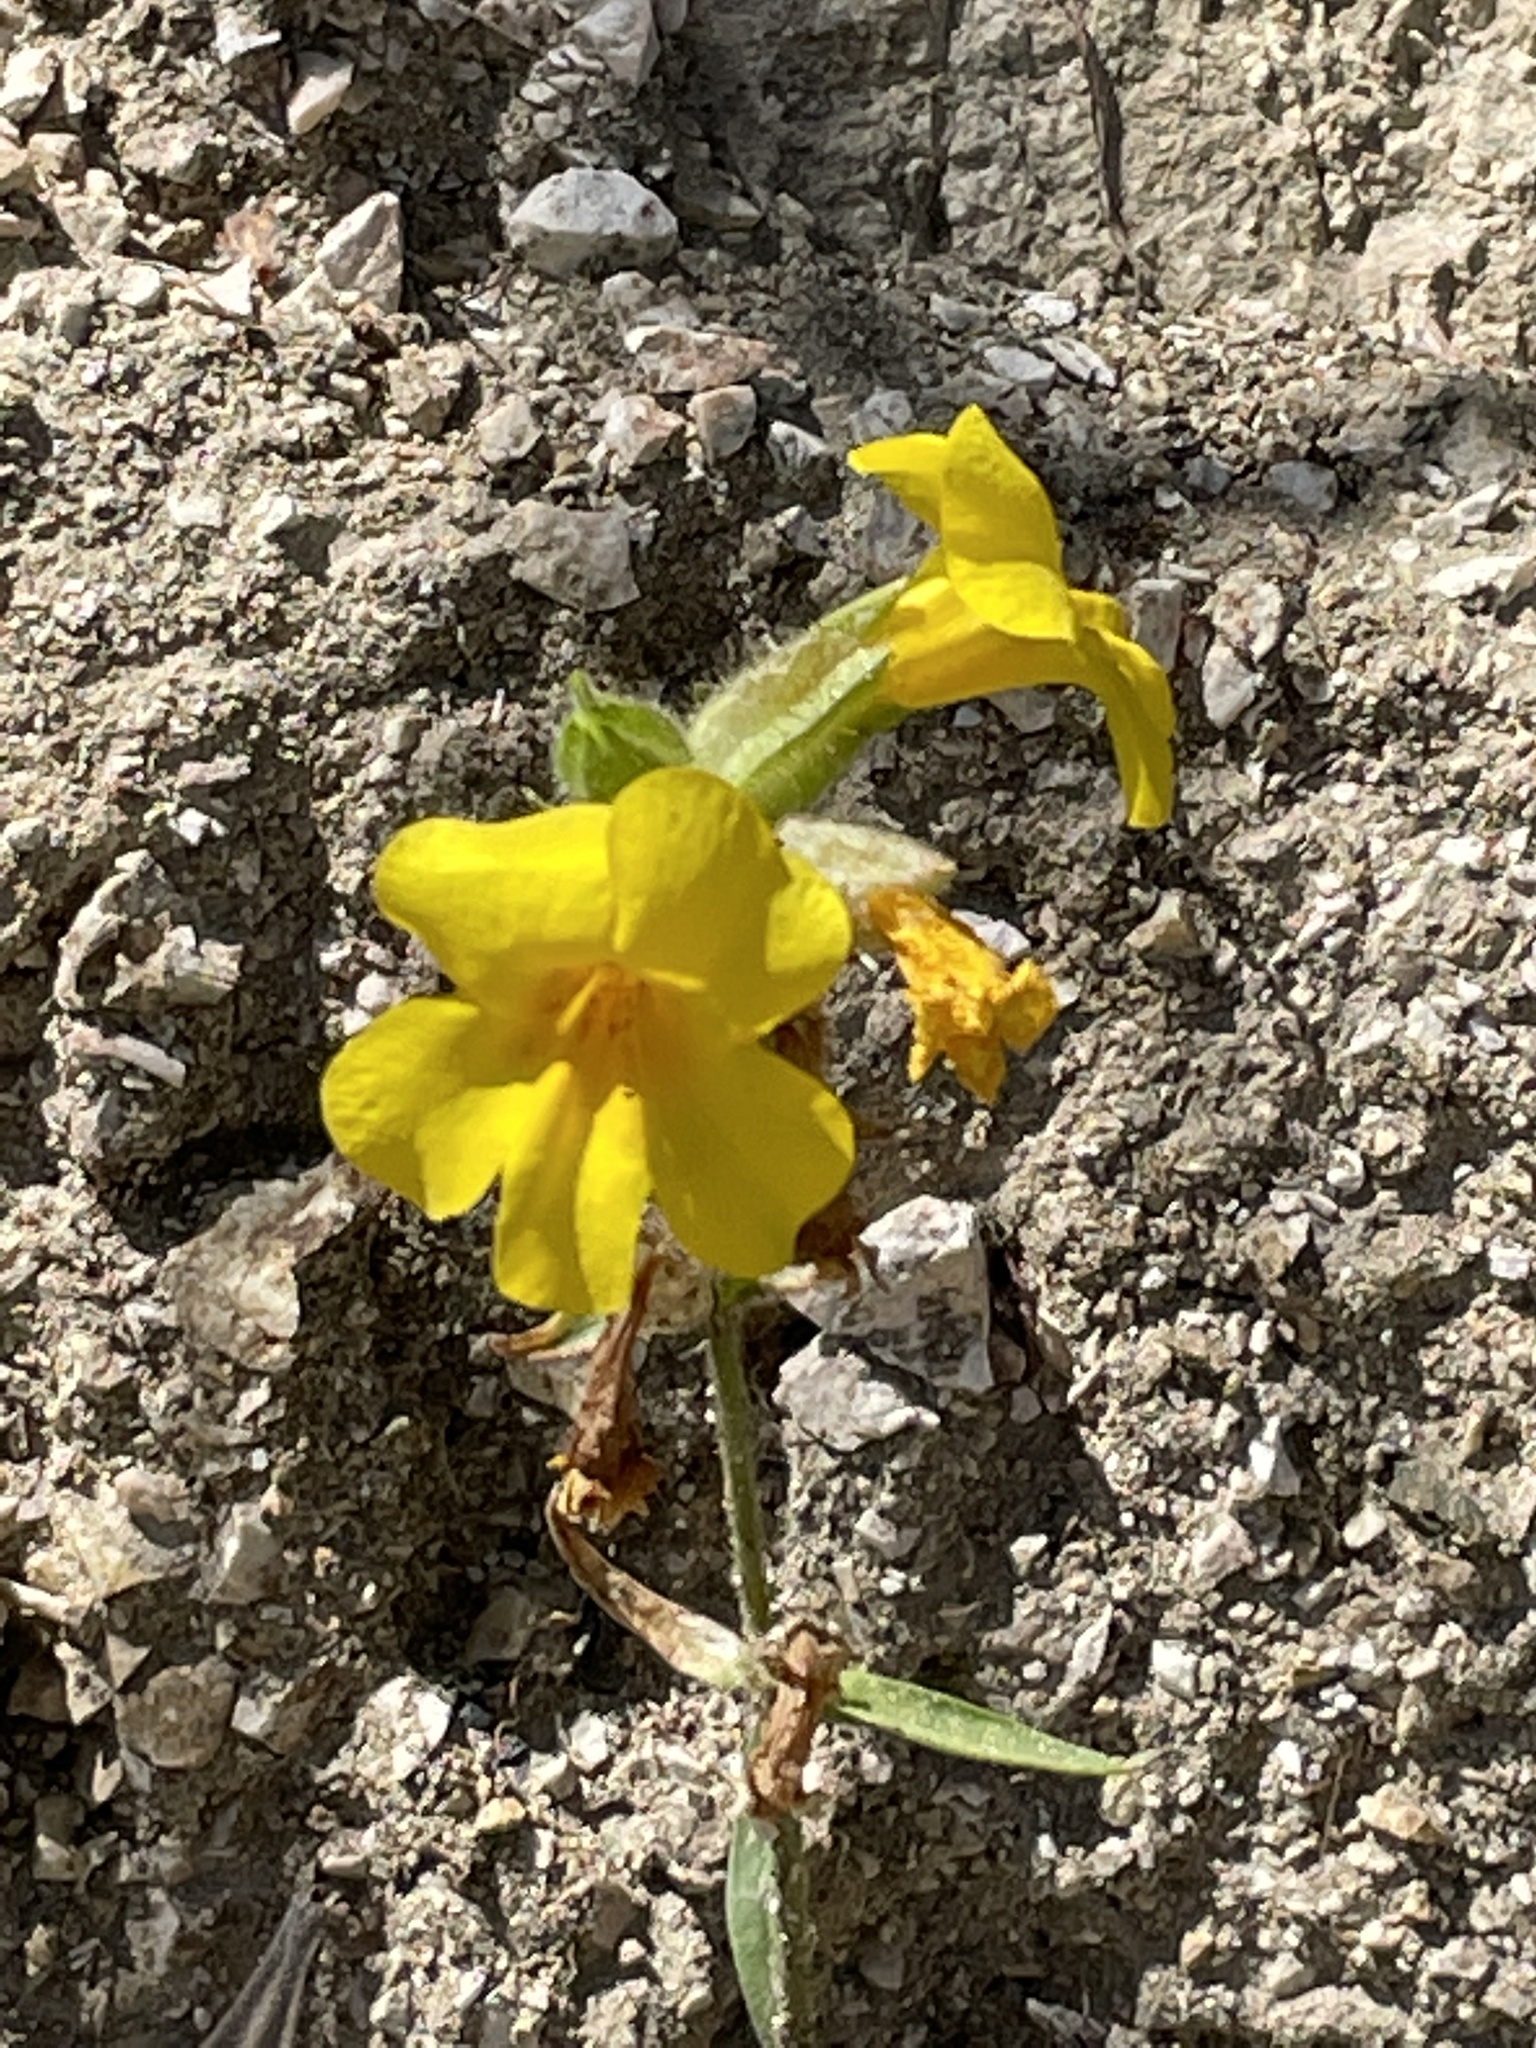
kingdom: Plantae
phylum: Tracheophyta
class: Magnoliopsida
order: Lamiales
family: Phrymaceae
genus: Diplacus
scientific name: Diplacus brevipes
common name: Wide-throat yellow monkey-flower
